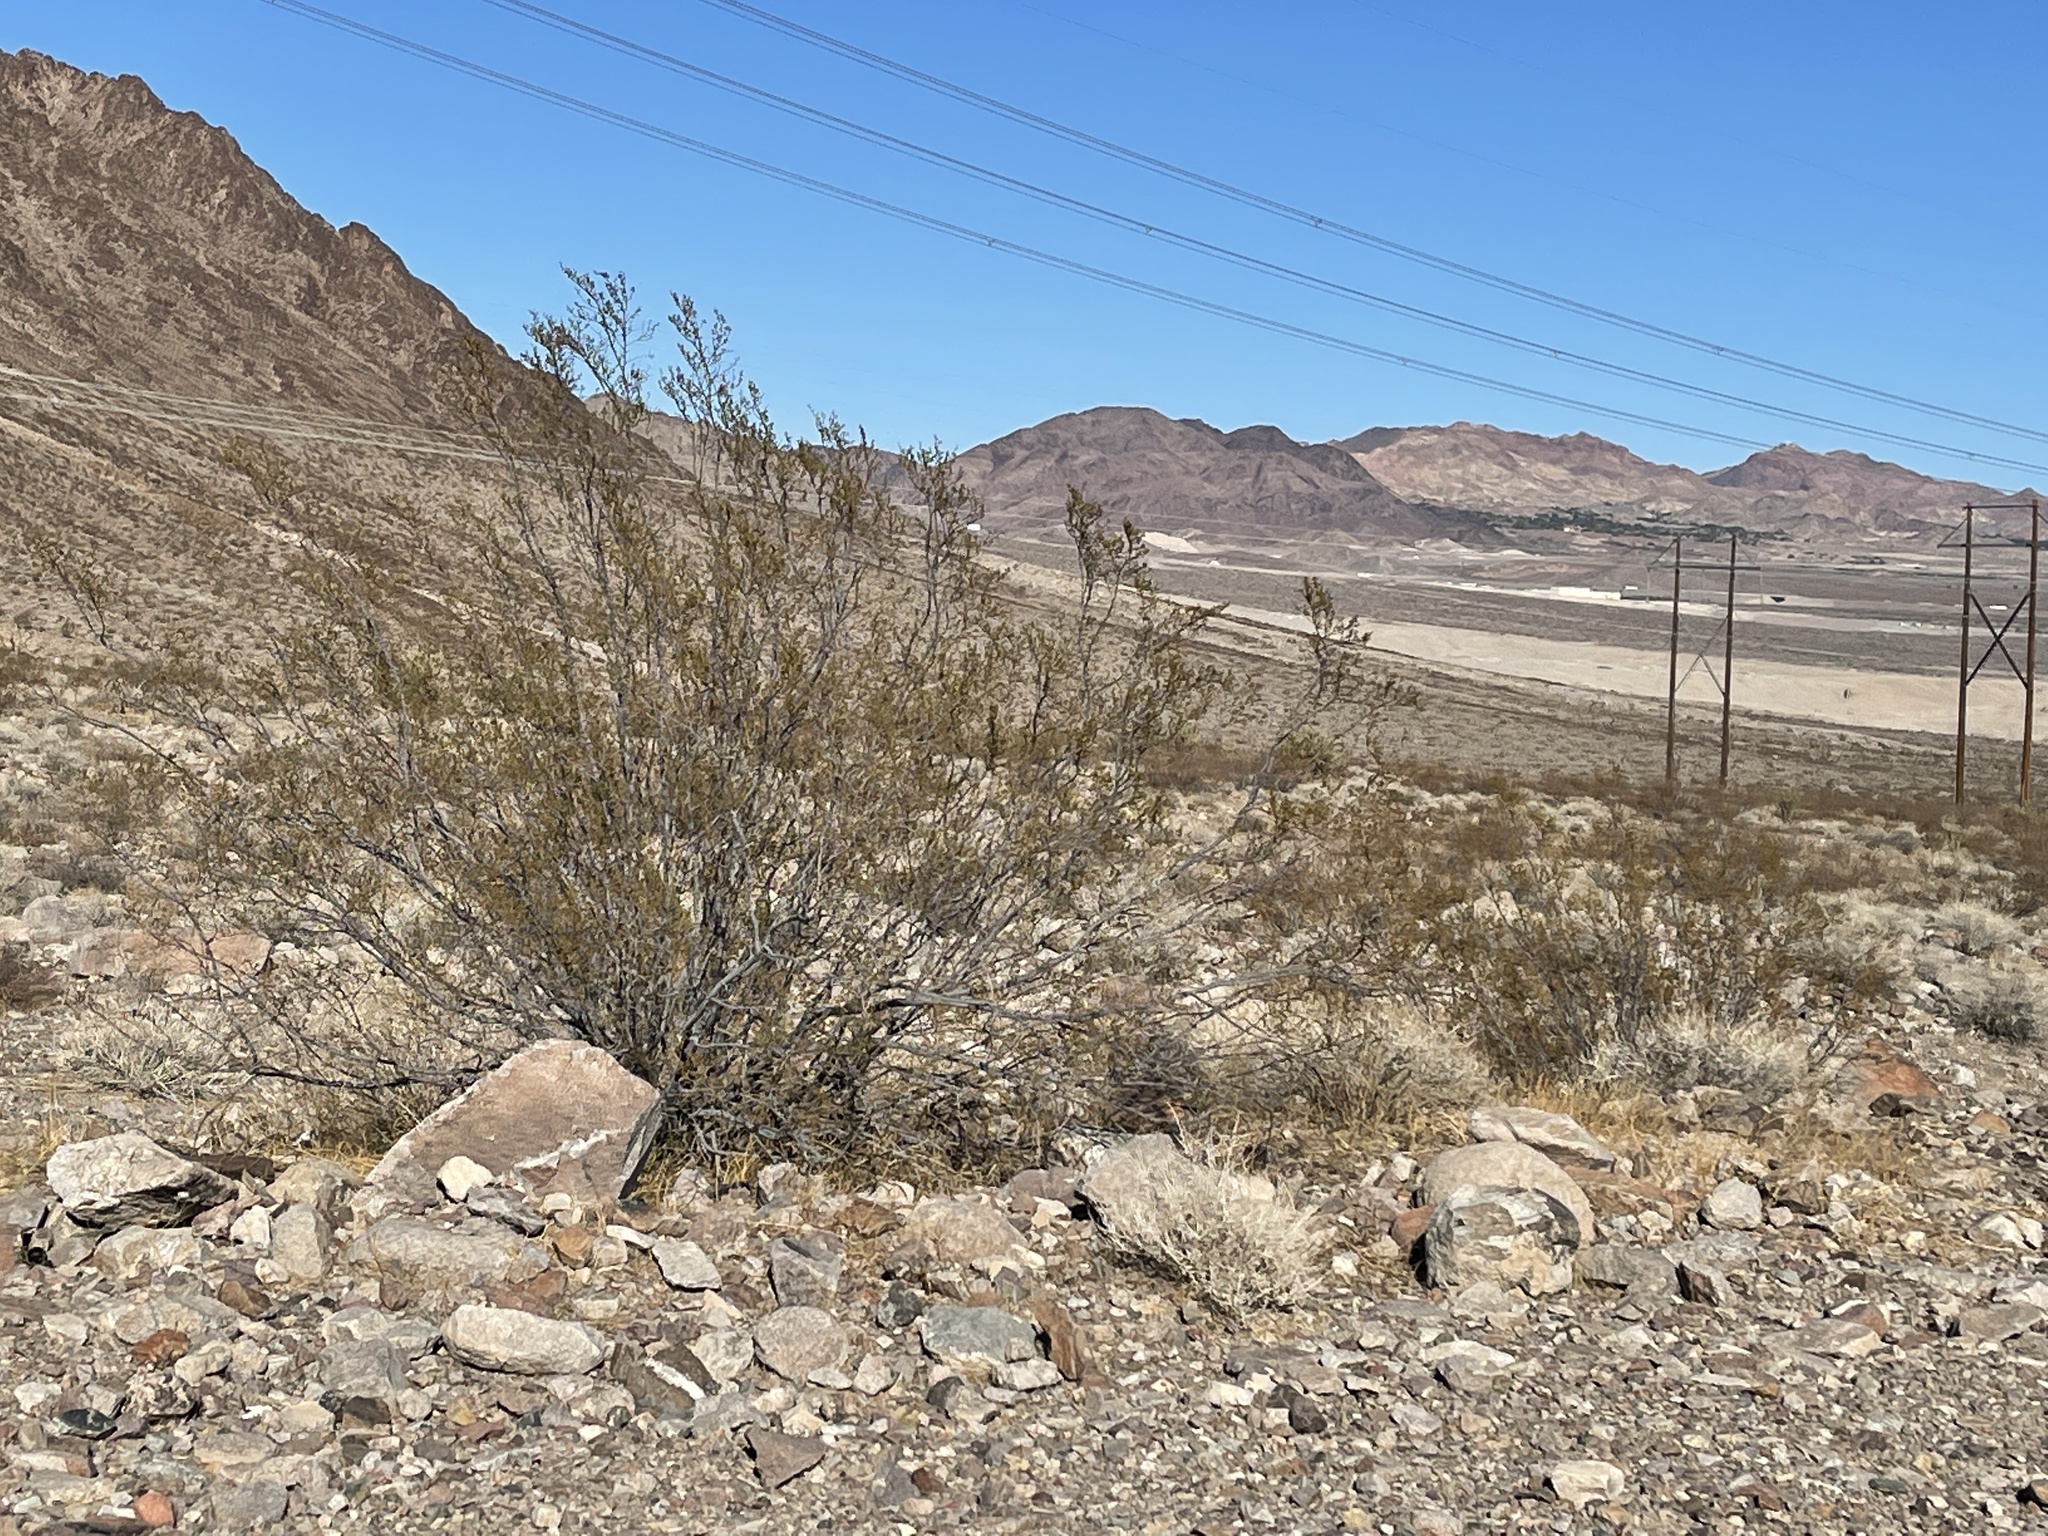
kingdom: Plantae
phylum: Tracheophyta
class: Magnoliopsida
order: Zygophyllales
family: Zygophyllaceae
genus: Larrea
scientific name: Larrea tridentata
